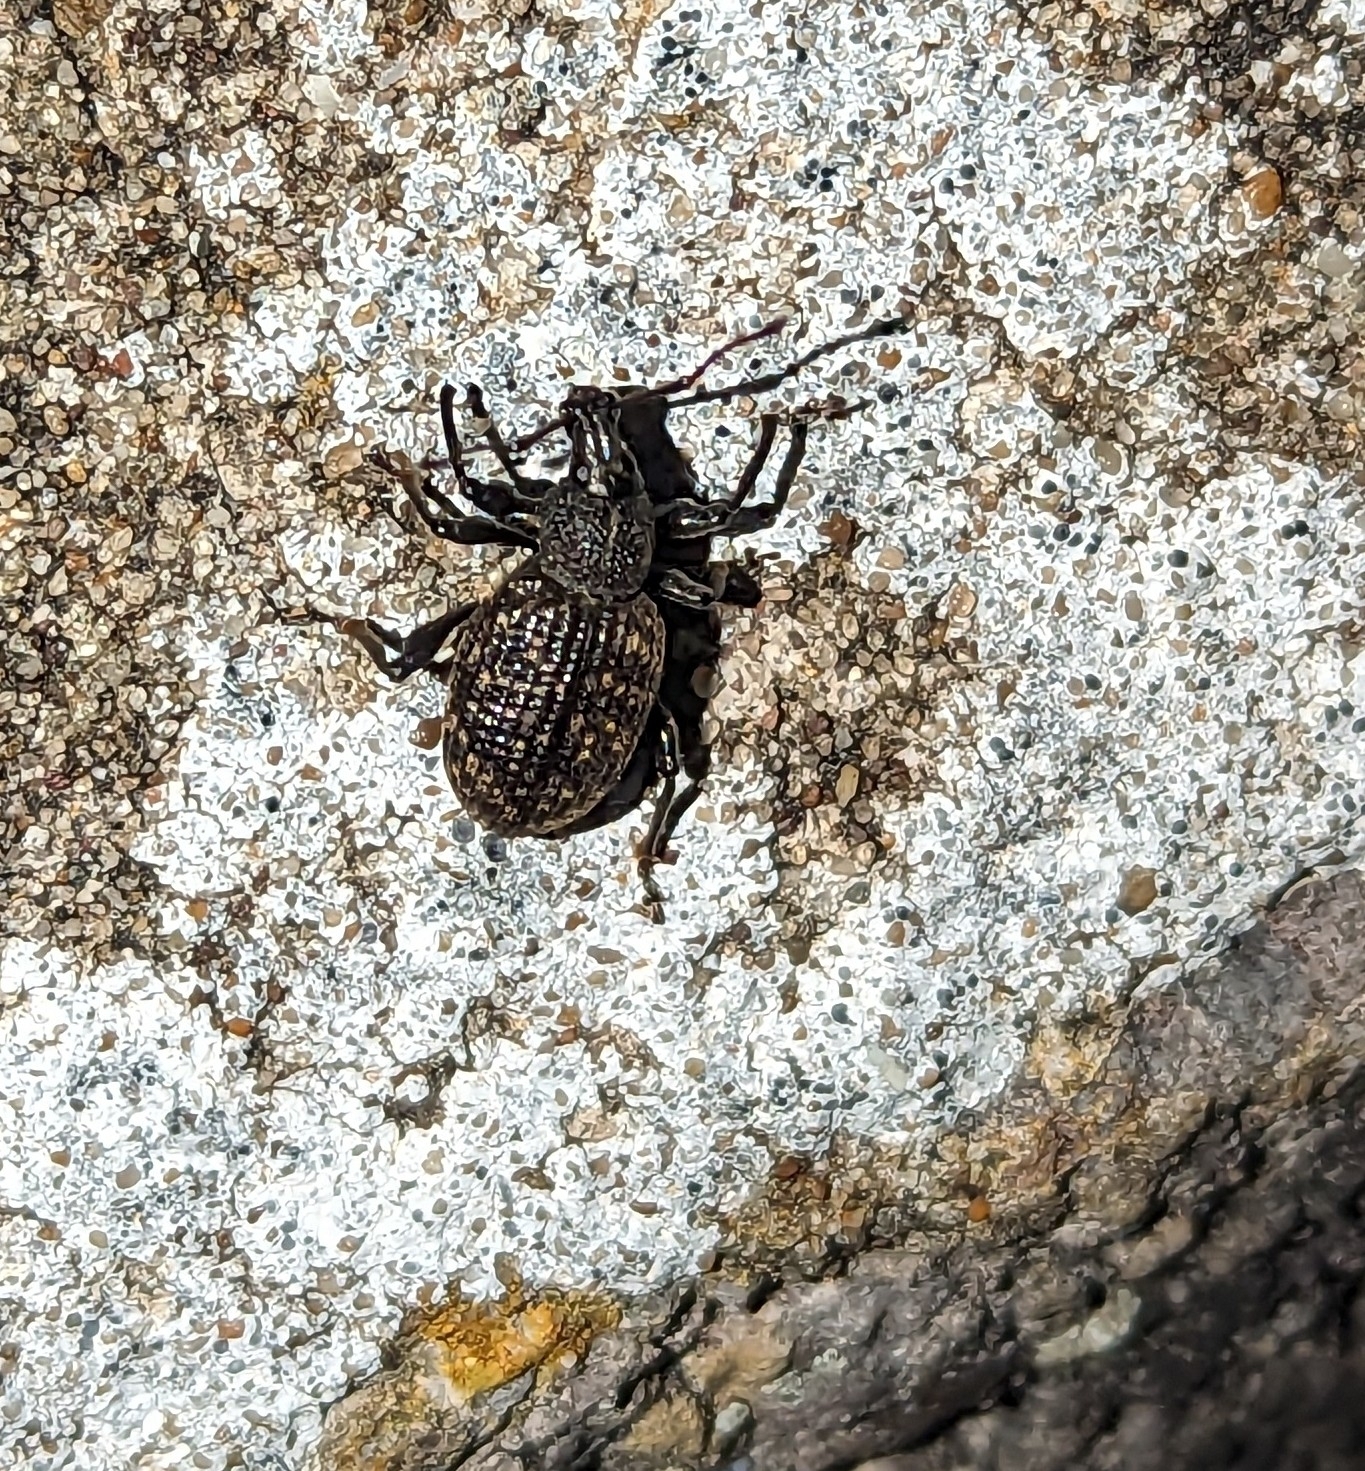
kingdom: Animalia
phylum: Arthropoda
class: Insecta
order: Coleoptera
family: Curculionidae
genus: Otiorhynchus
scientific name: Otiorhynchus sulcatus
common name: Black vine weevil
